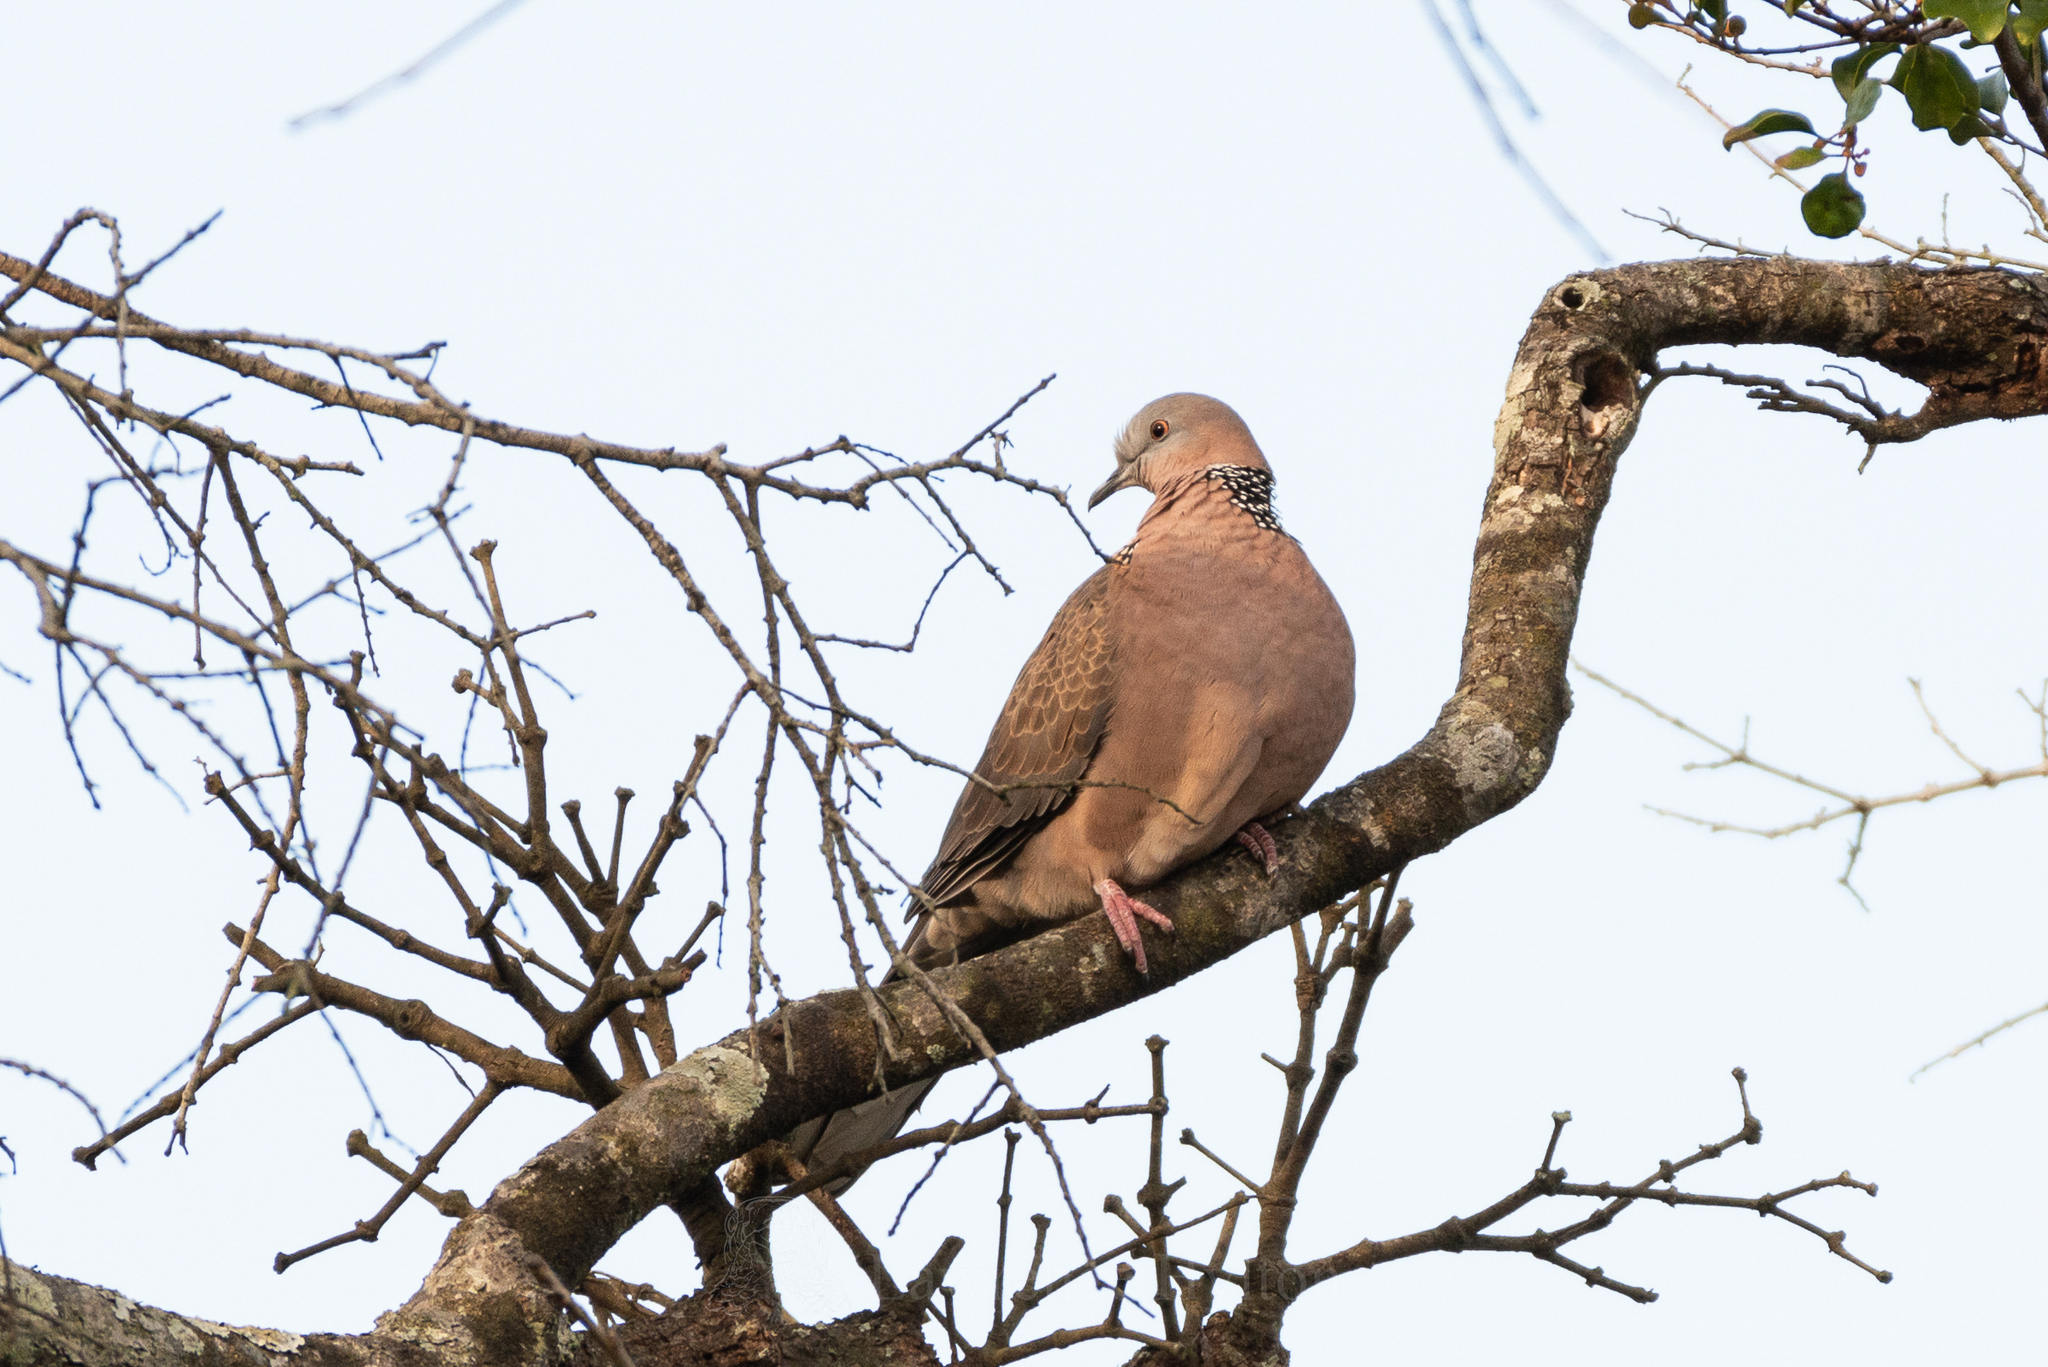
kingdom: Animalia
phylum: Chordata
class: Aves
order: Columbiformes
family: Columbidae
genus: Spilopelia
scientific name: Spilopelia chinensis
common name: Spotted dove
